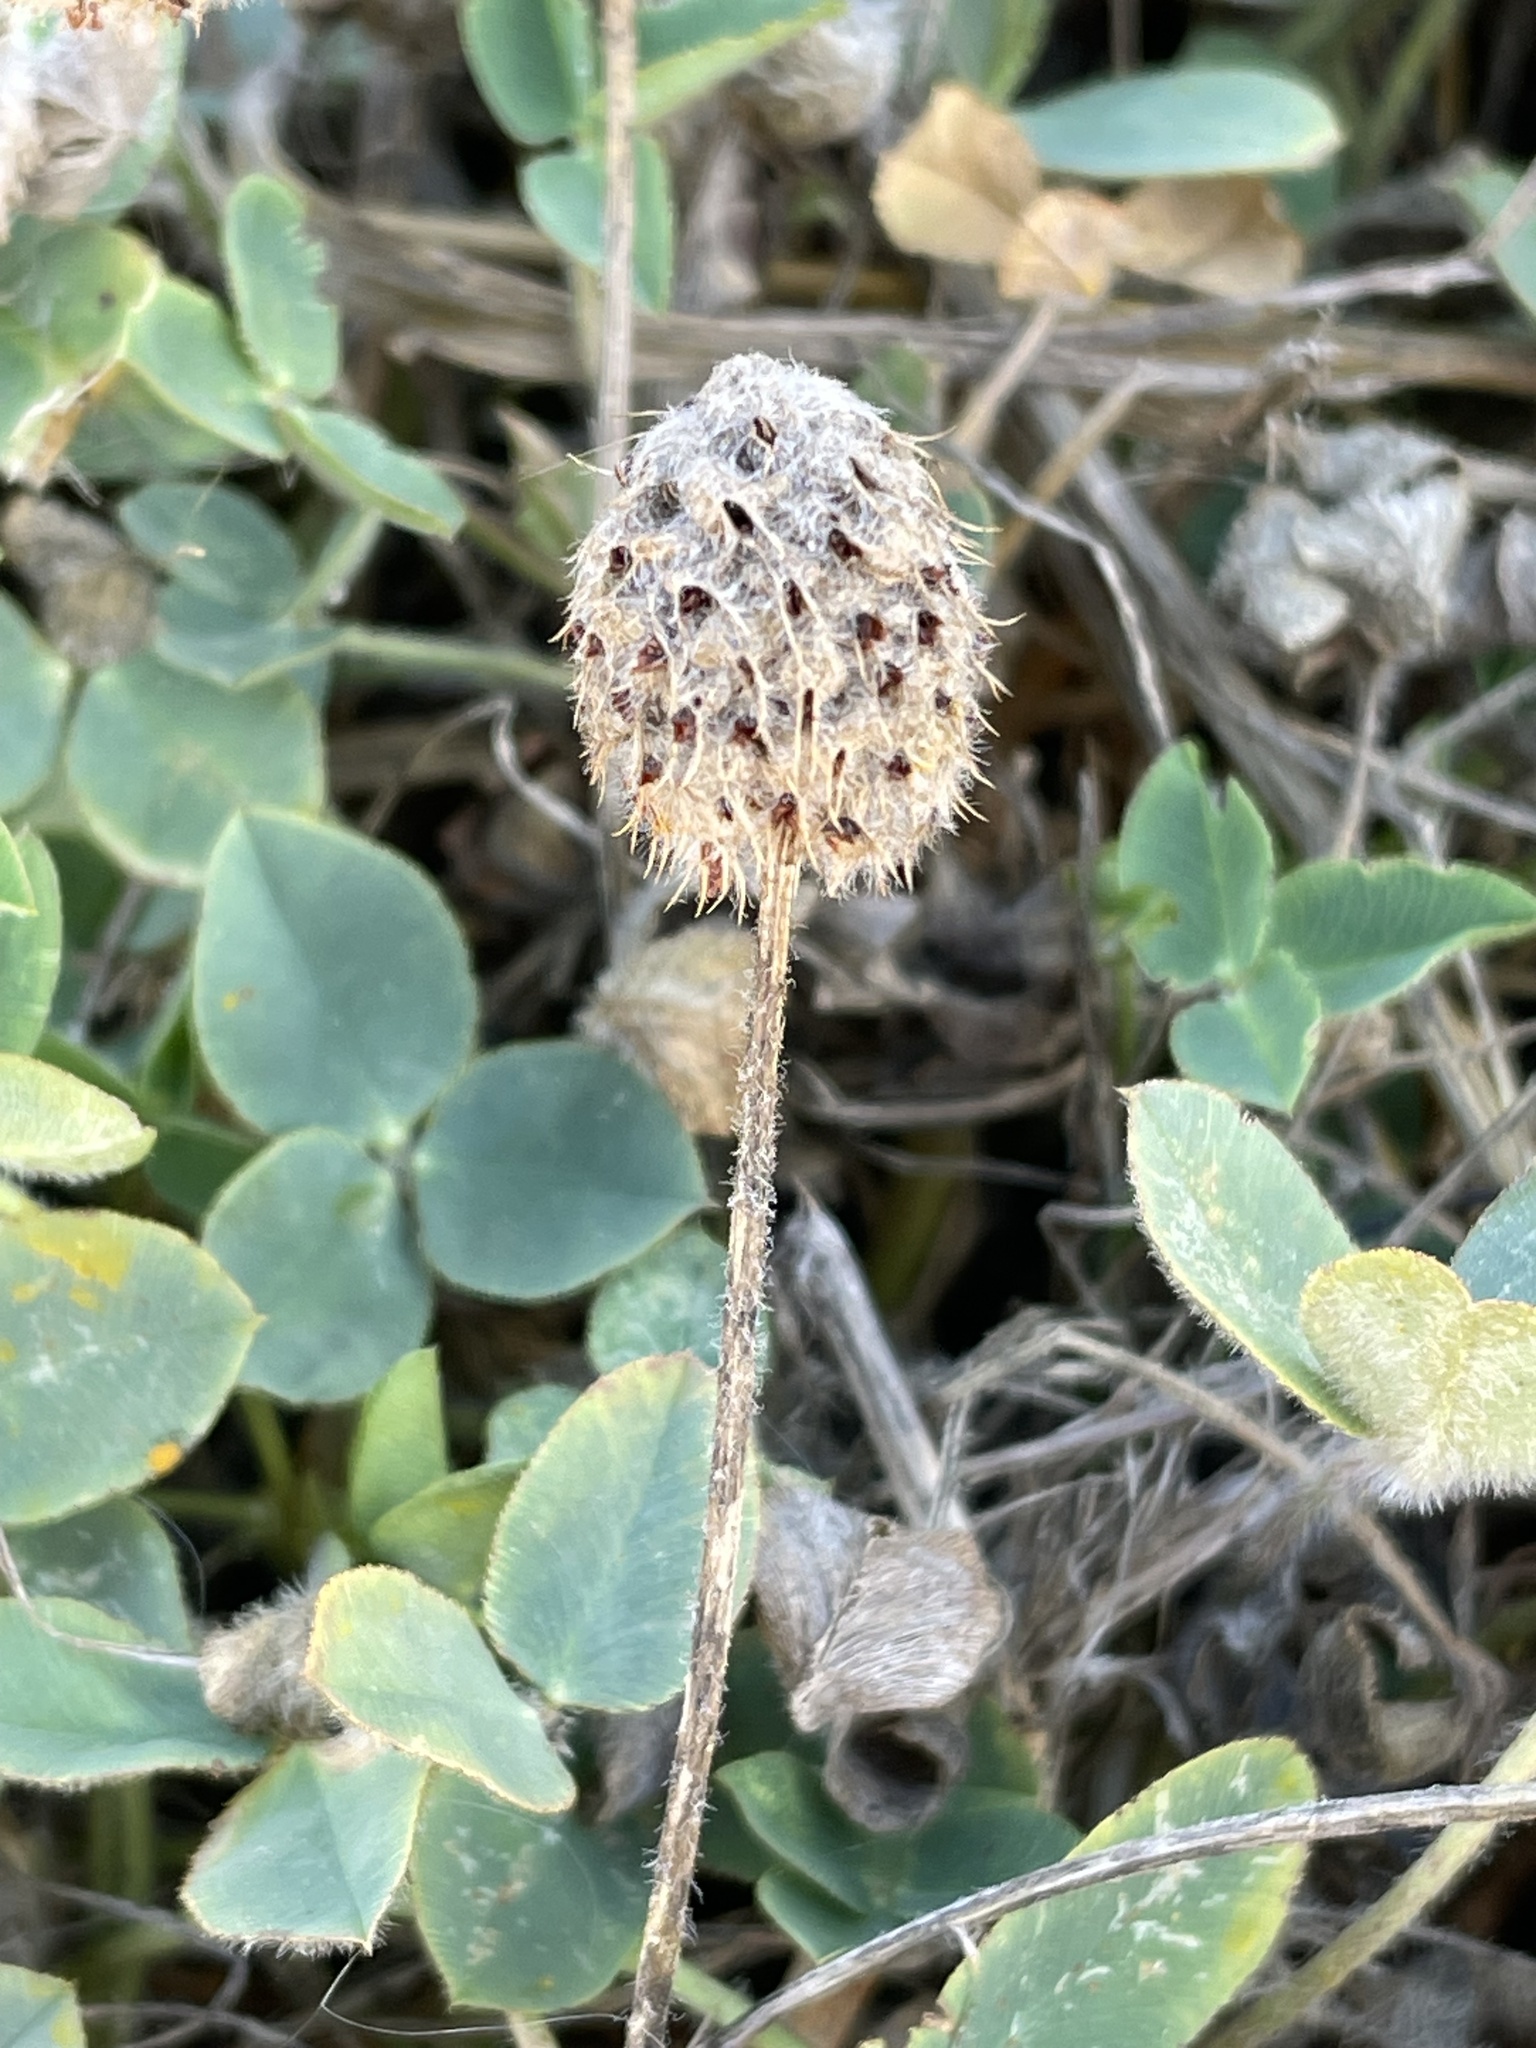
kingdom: Plantae
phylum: Tracheophyta
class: Magnoliopsida
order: Fabales
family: Fabaceae
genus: Trifolium
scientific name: Trifolium fragiferum
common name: Strawberry clover
